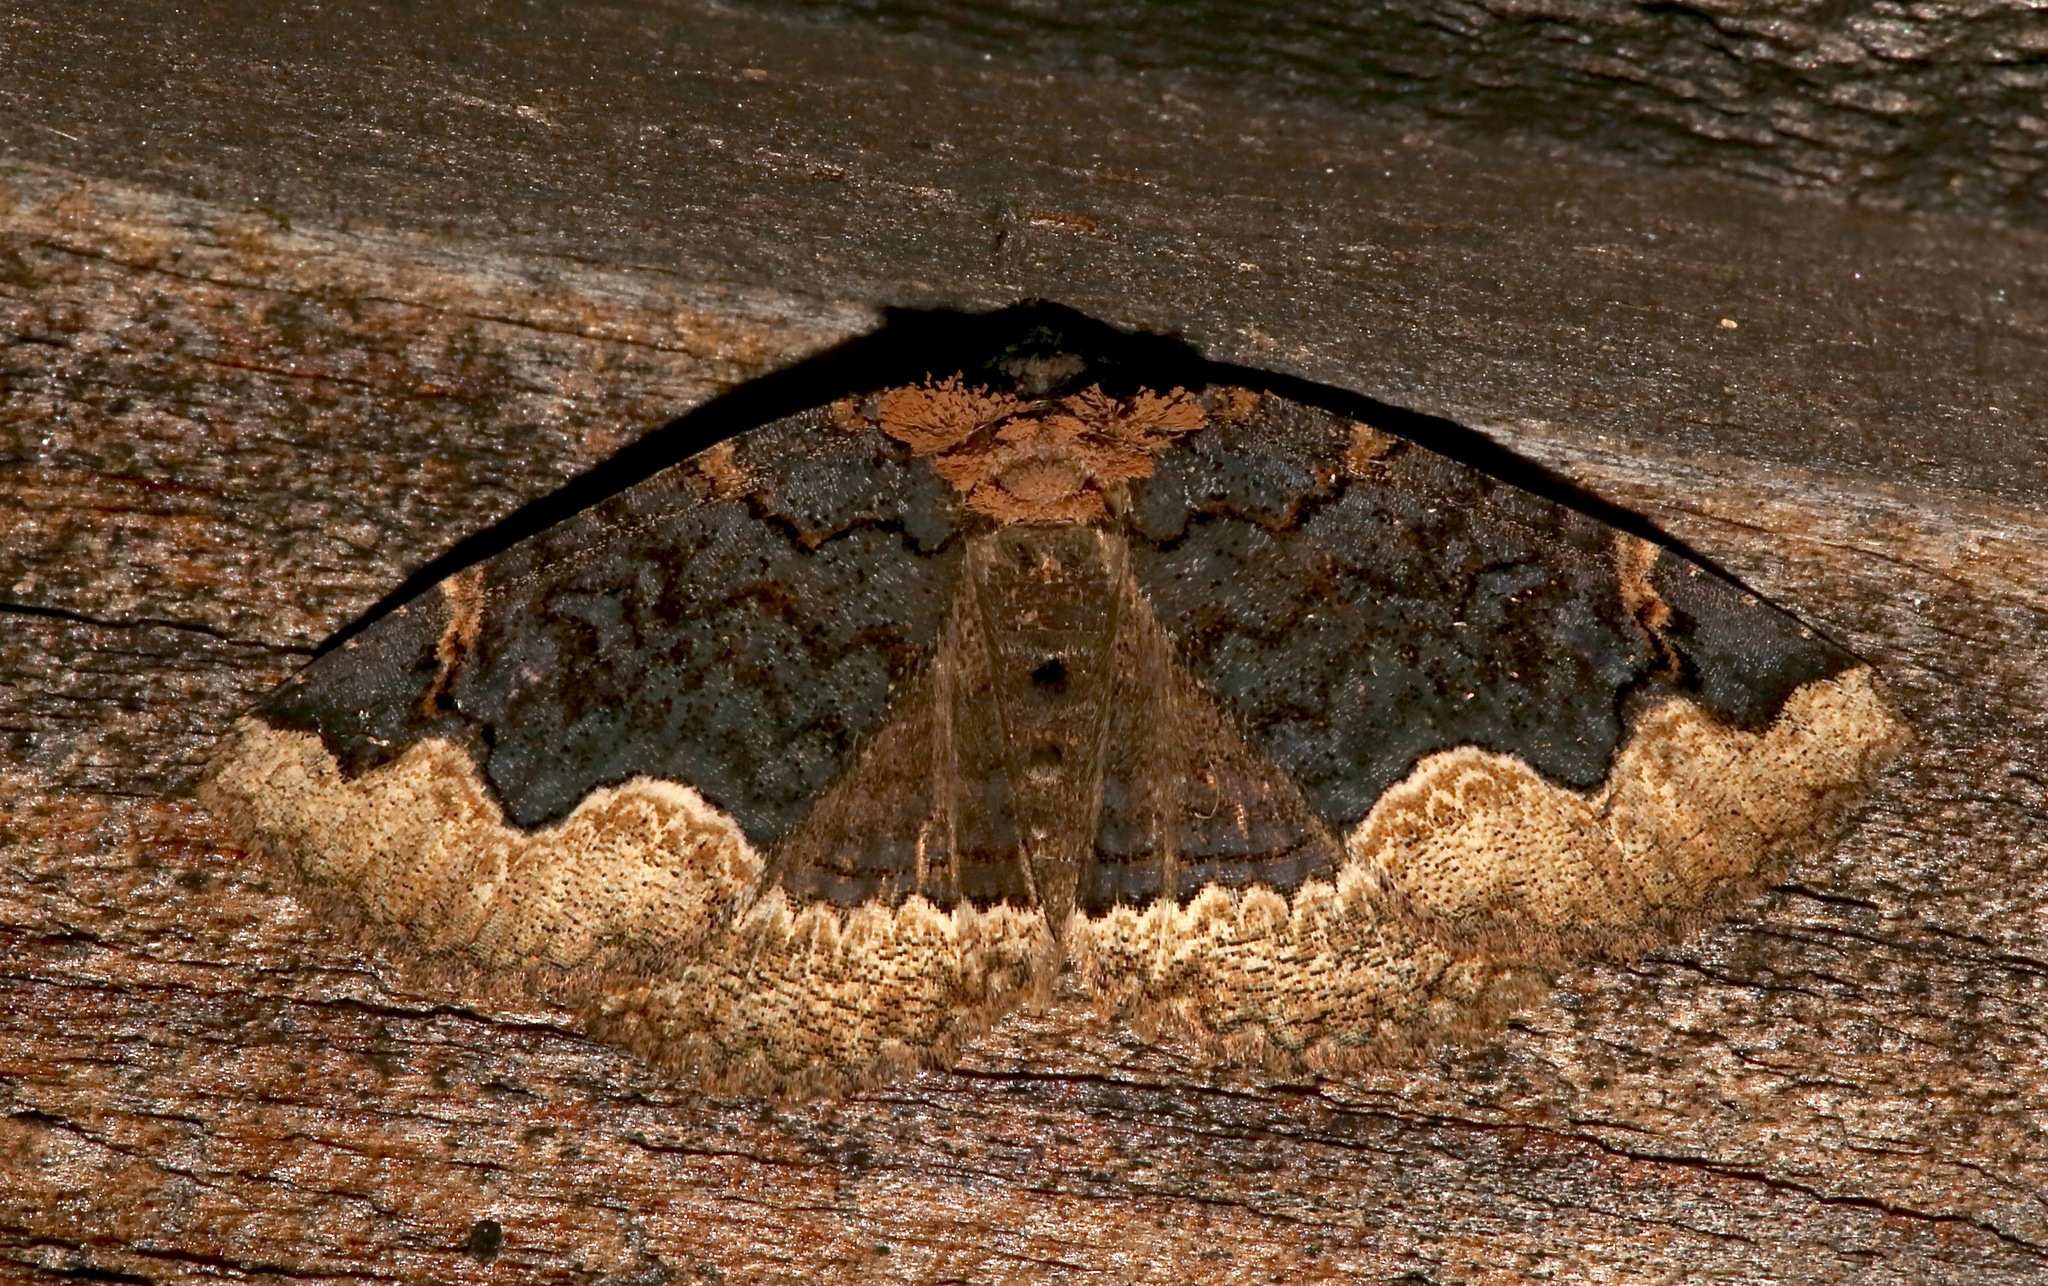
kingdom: Animalia
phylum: Arthropoda
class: Insecta
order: Lepidoptera
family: Erebidae
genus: Zale
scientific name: Zale horrida
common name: Horrid zale moth
